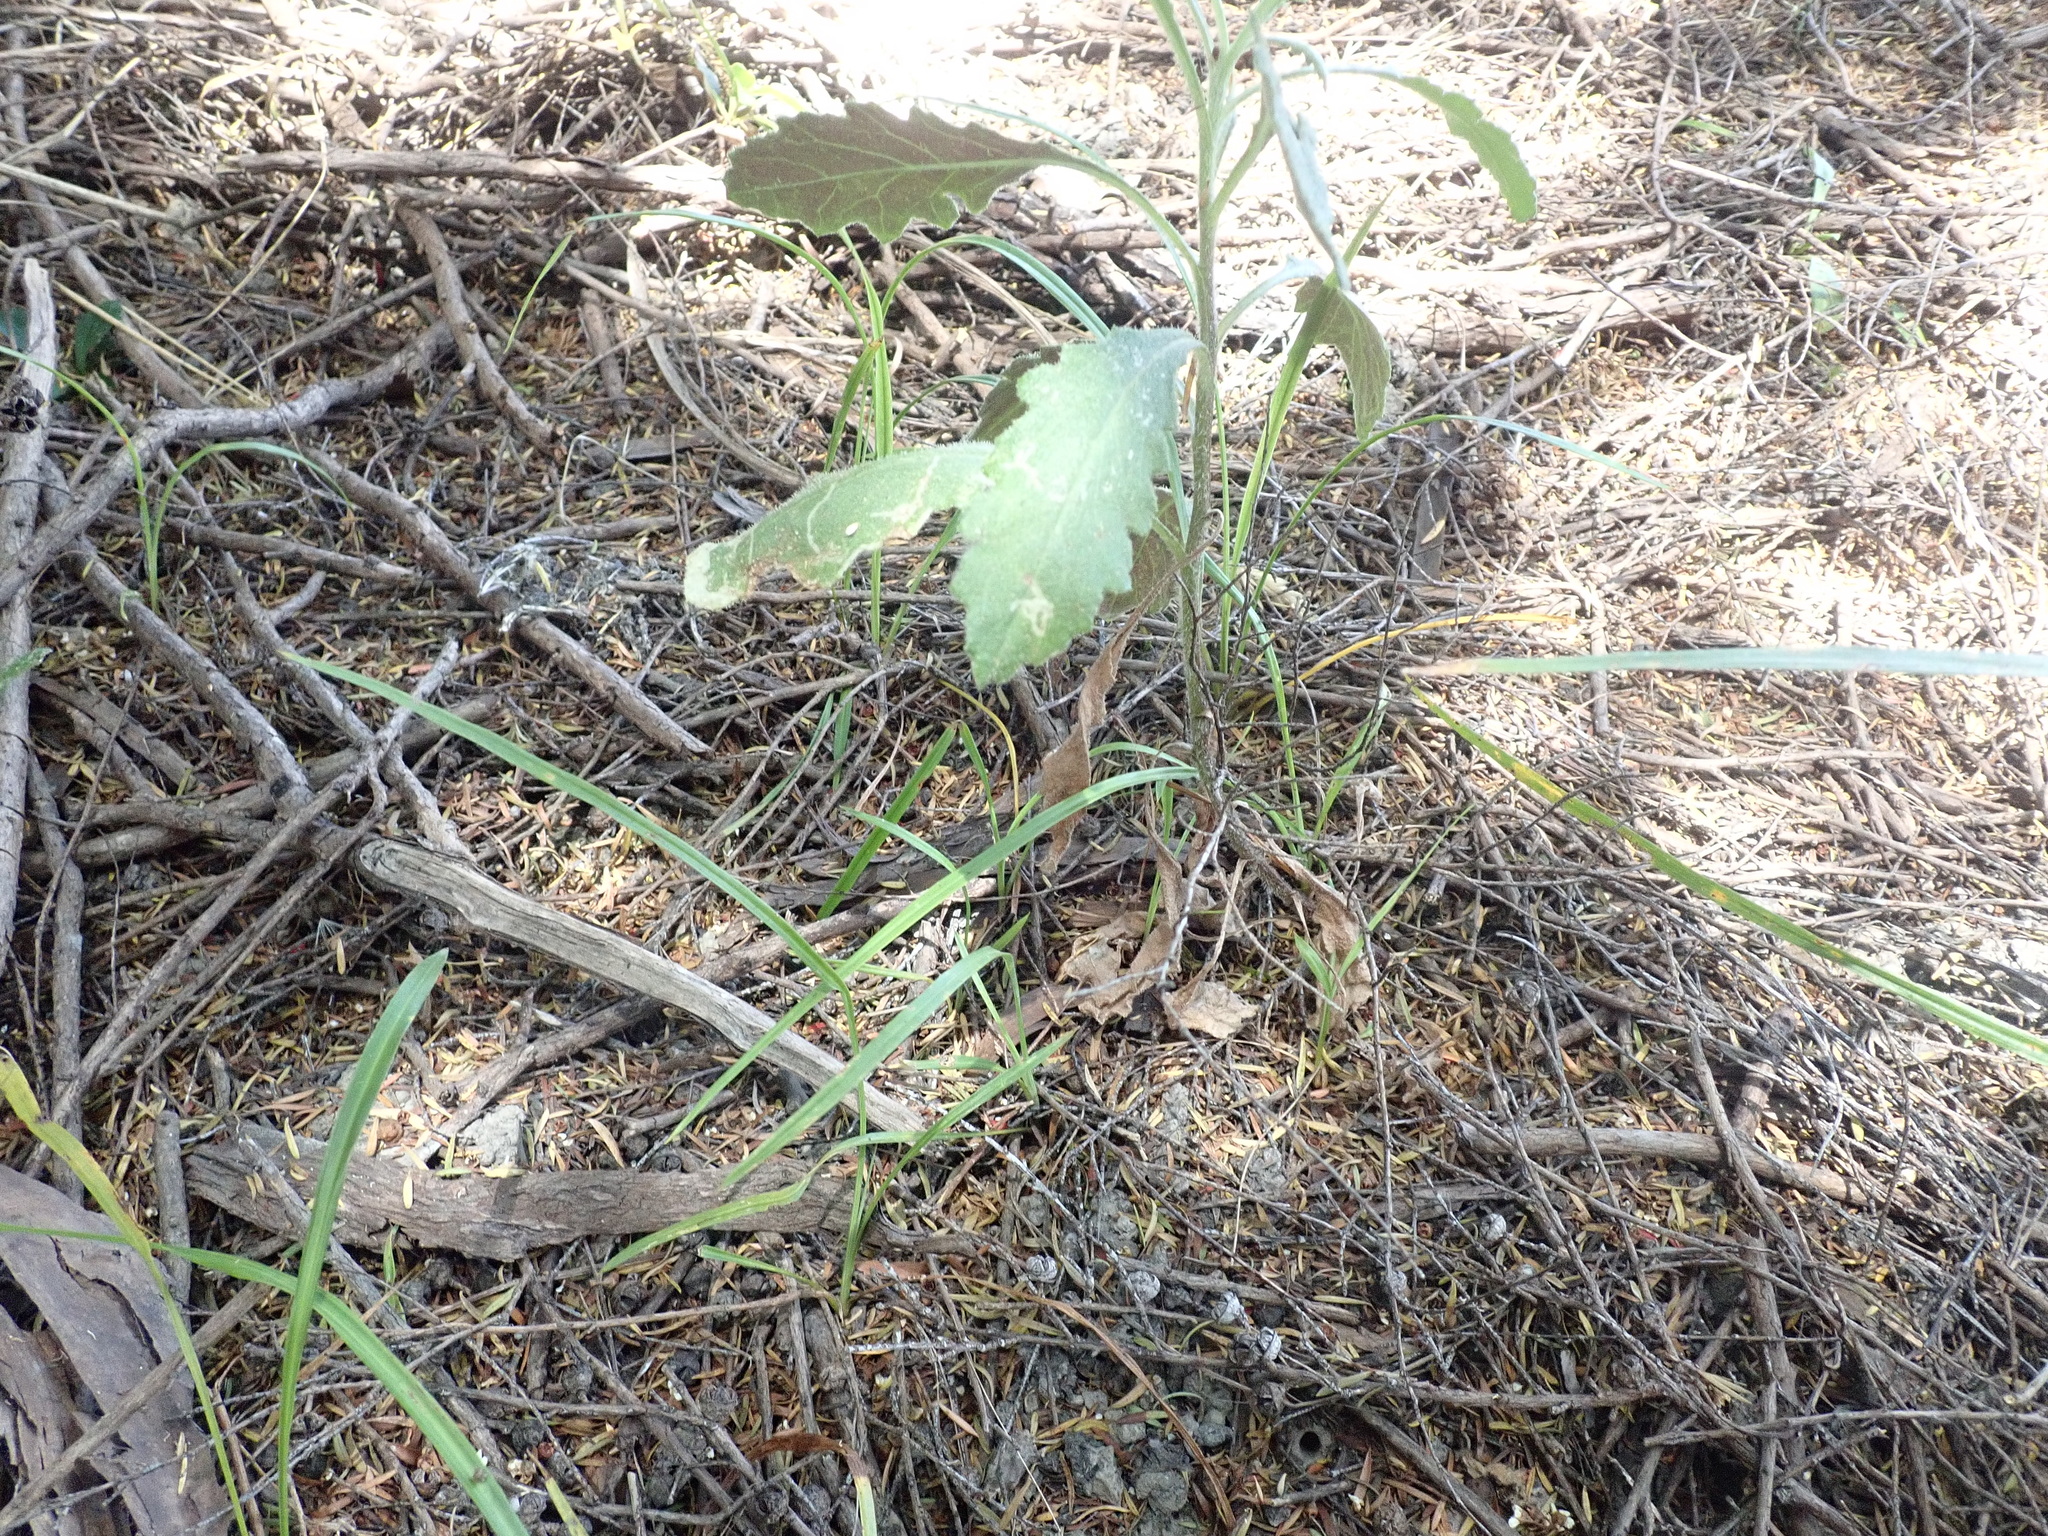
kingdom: Plantae
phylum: Tracheophyta
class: Magnoliopsida
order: Asterales
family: Asteraceae
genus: Senecio
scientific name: Senecio glomeratus
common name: Cutleaf burnweed
